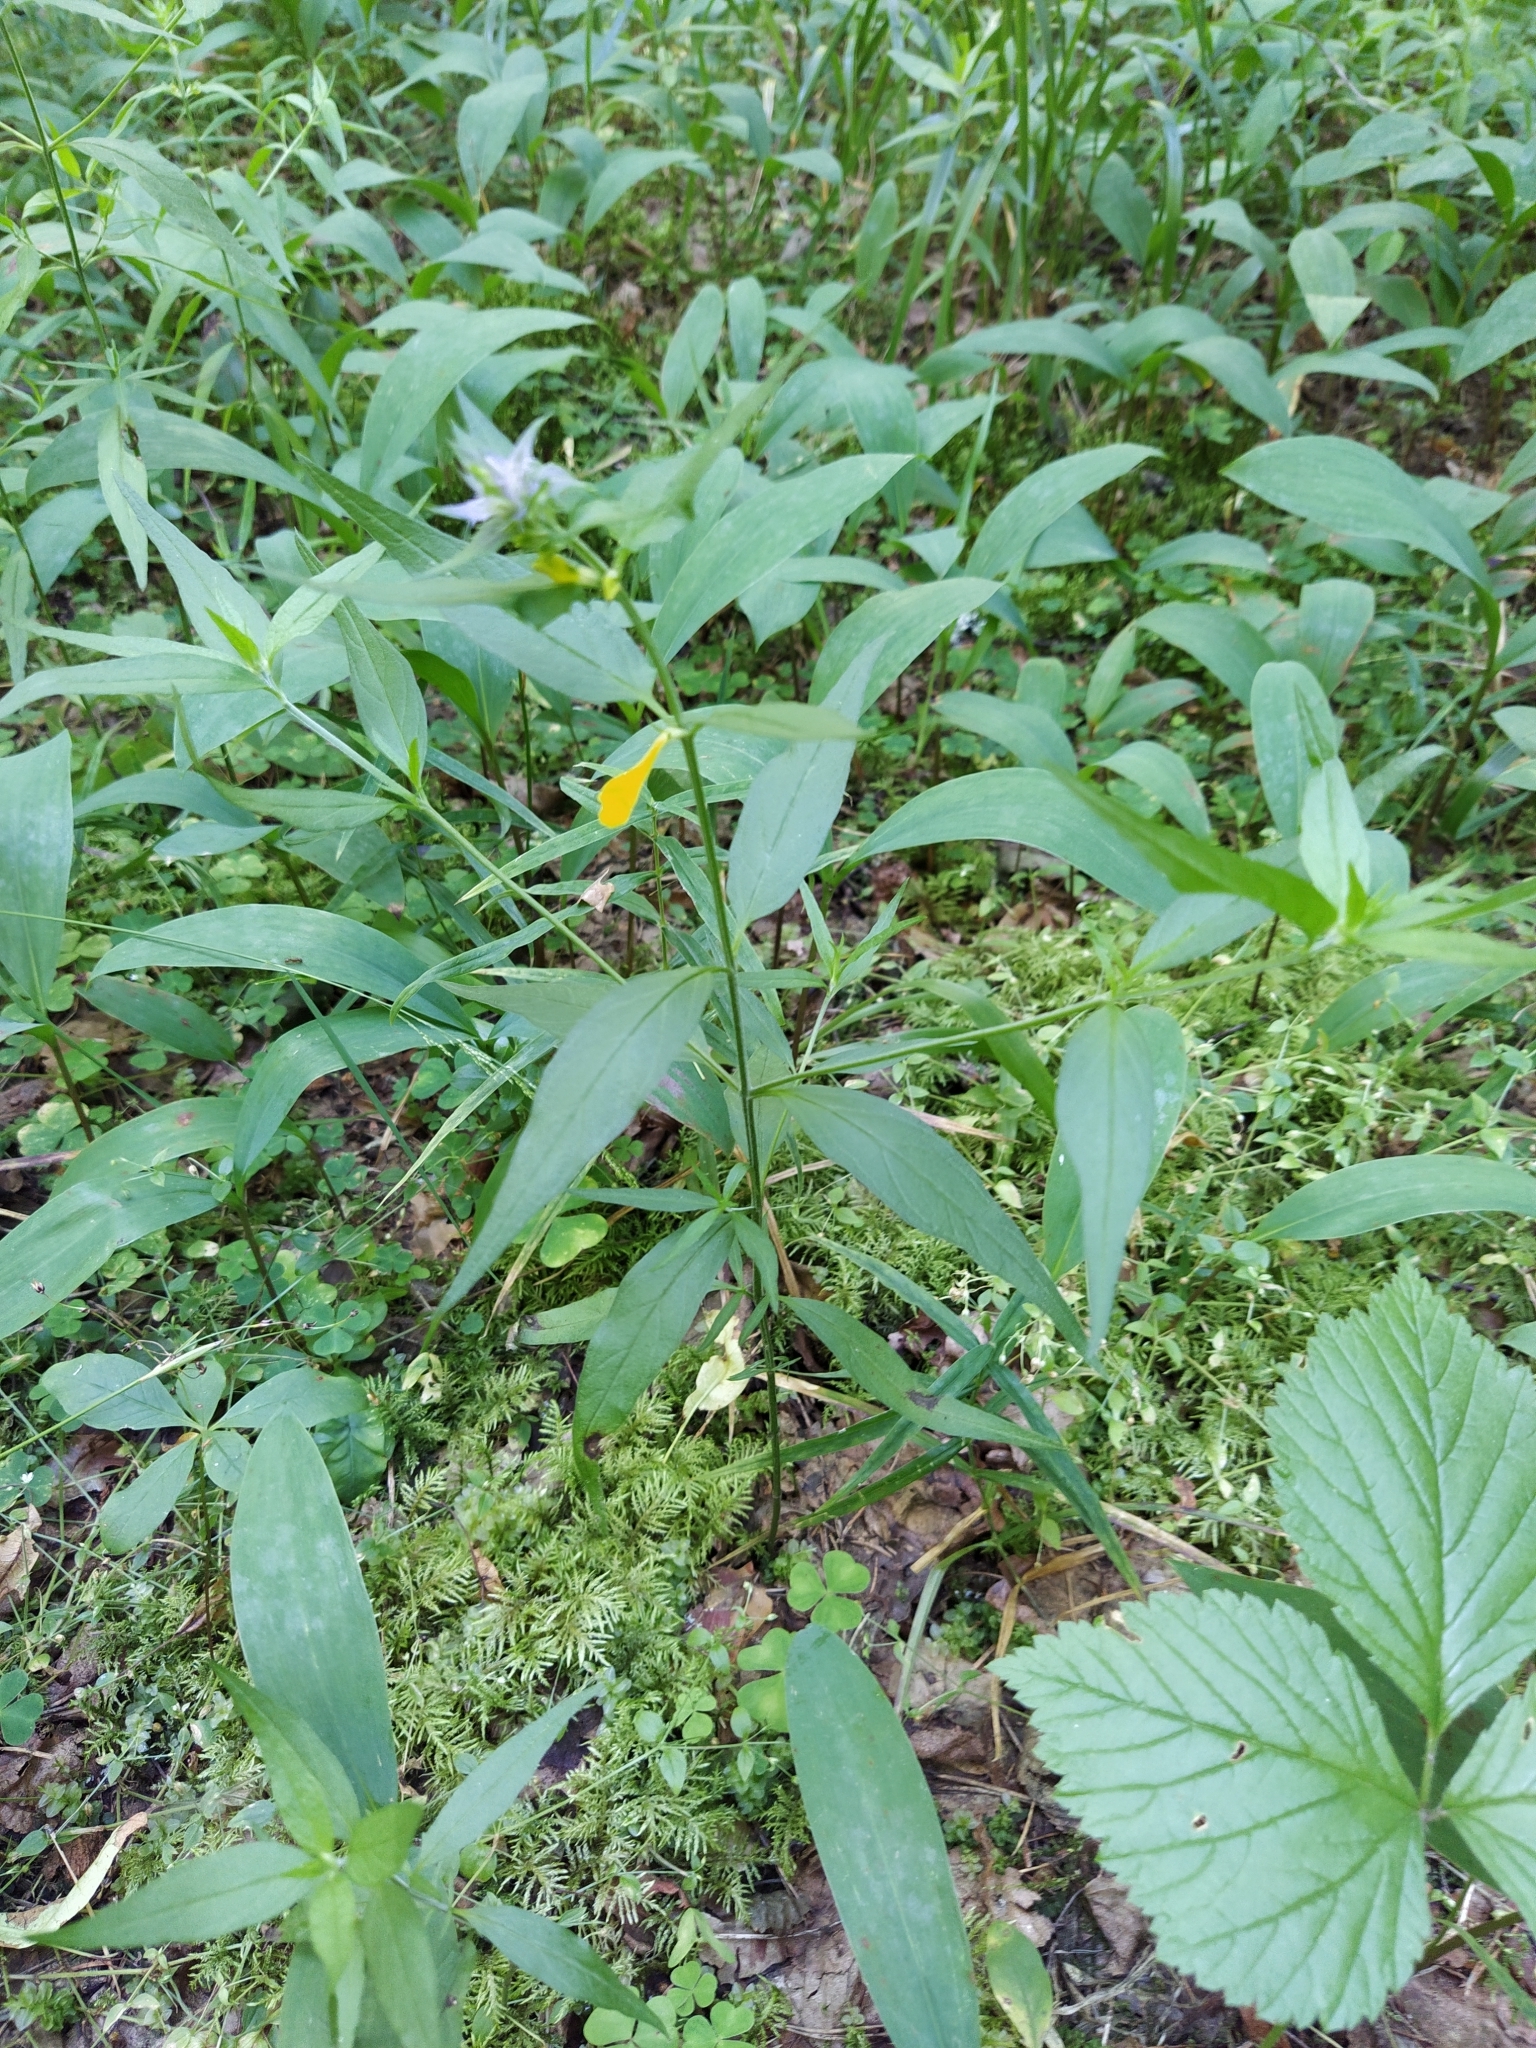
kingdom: Plantae
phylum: Tracheophyta
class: Magnoliopsida
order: Lamiales
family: Orobanchaceae
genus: Melampyrum
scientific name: Melampyrum nemorosum
